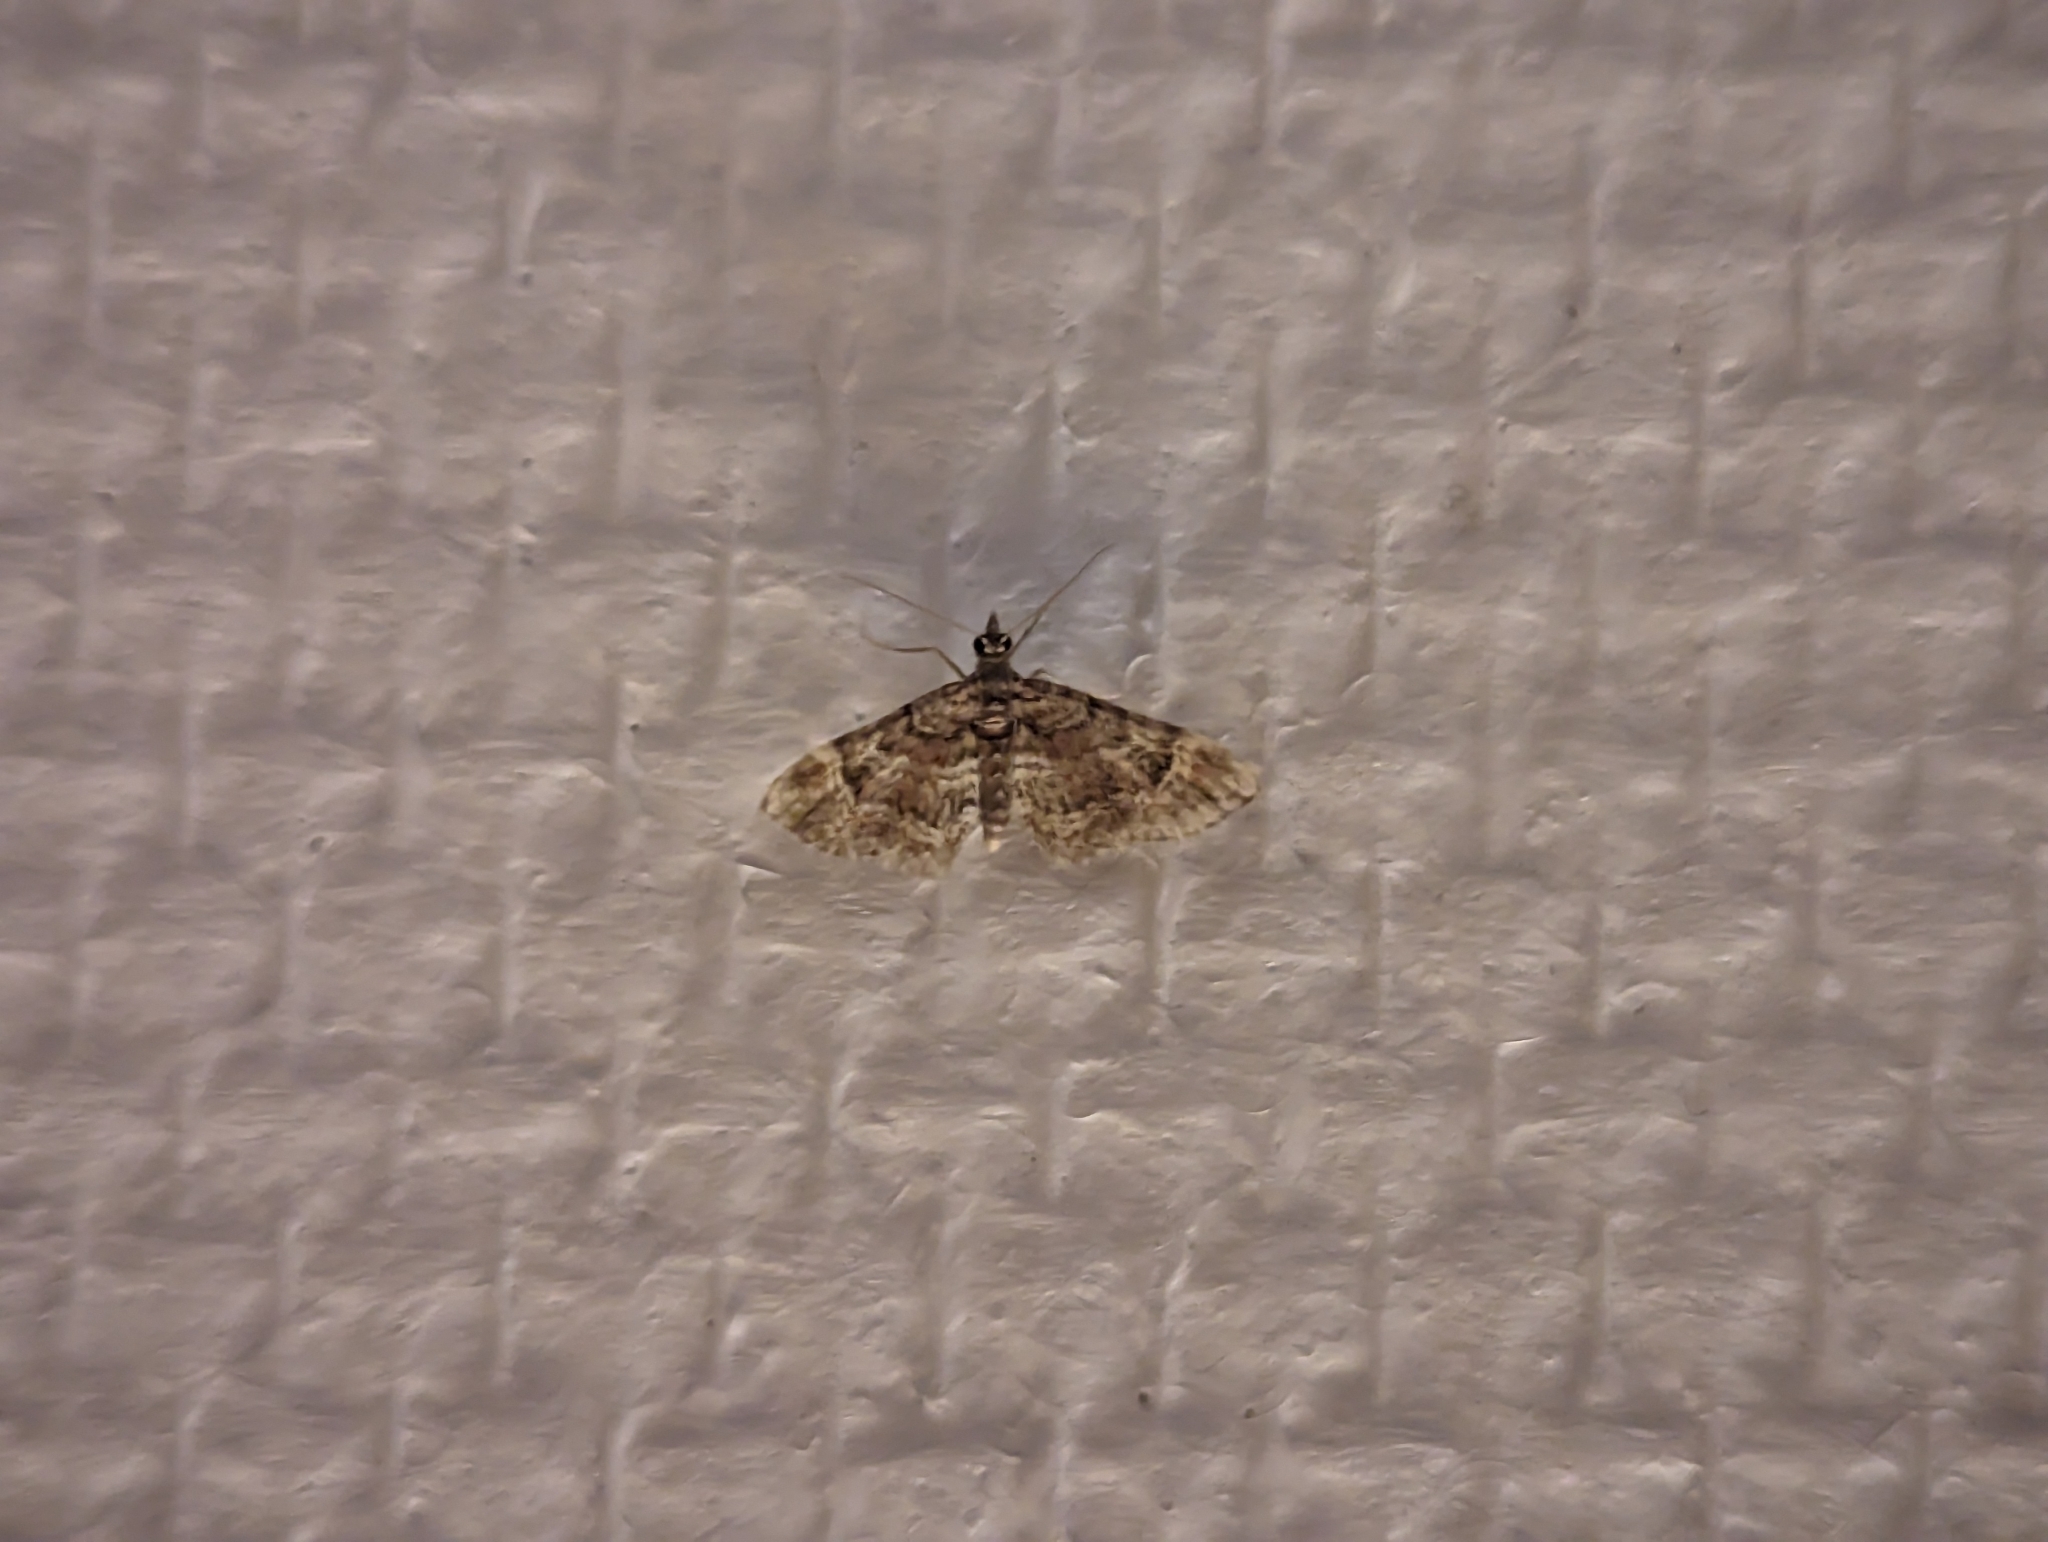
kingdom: Animalia
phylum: Arthropoda
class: Insecta
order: Lepidoptera
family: Geometridae
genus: Gymnoscelis
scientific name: Gymnoscelis rufifasciata
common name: Double-striped pug
